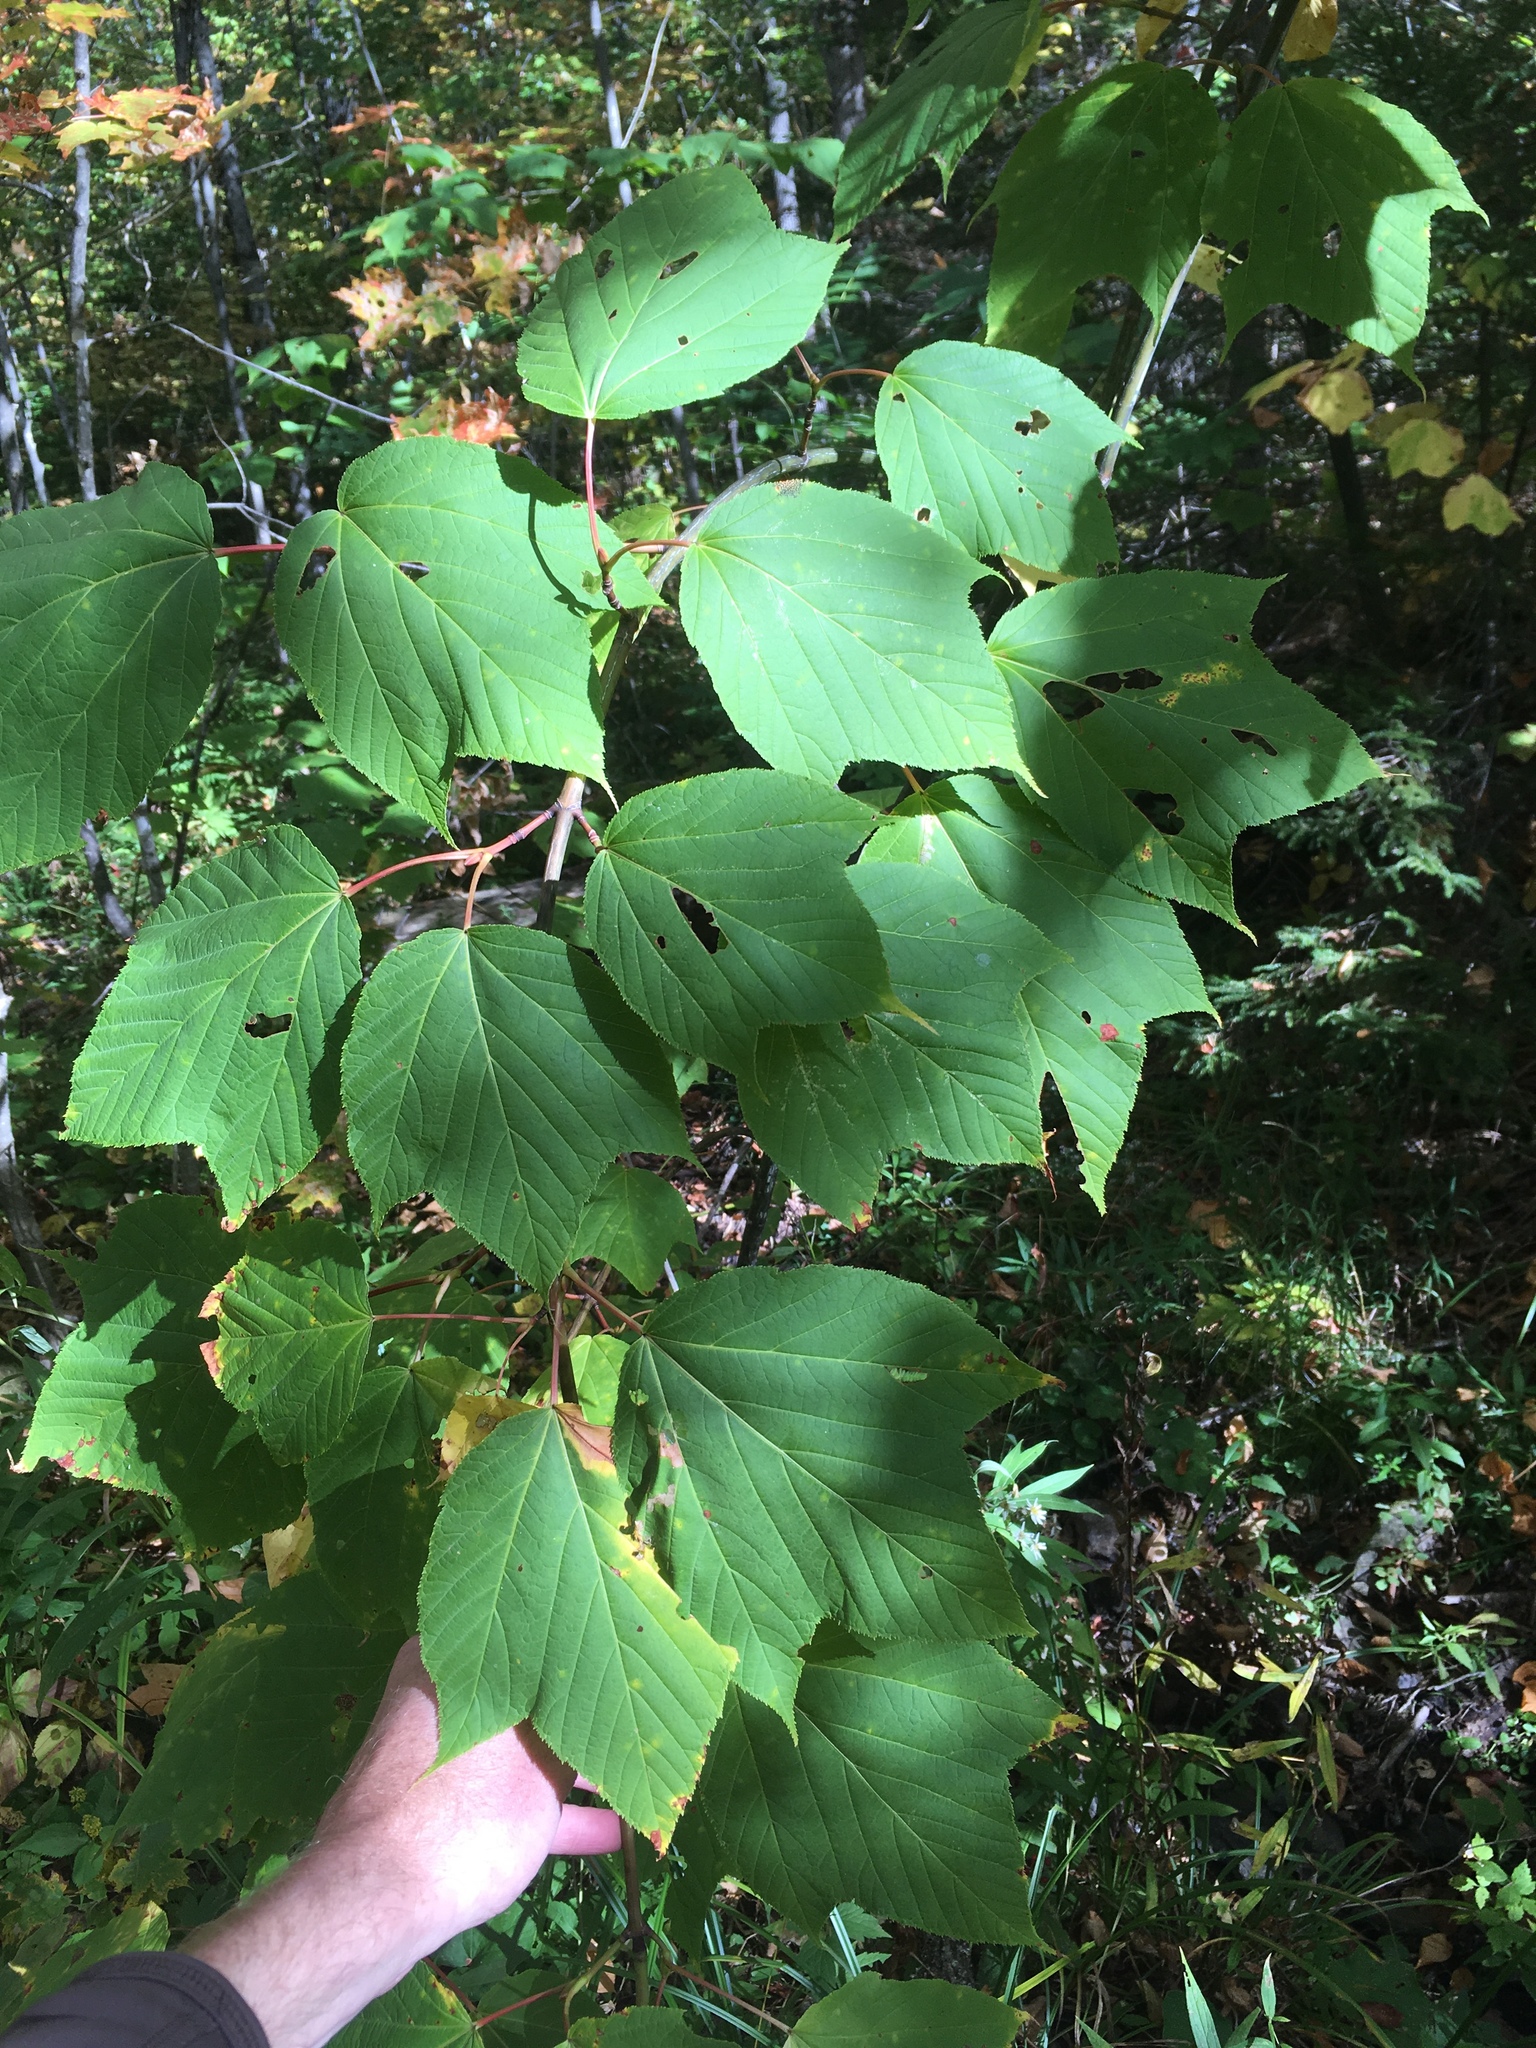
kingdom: Plantae
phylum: Tracheophyta
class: Magnoliopsida
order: Sapindales
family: Sapindaceae
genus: Acer
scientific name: Acer pensylvanicum
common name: Moosewood
